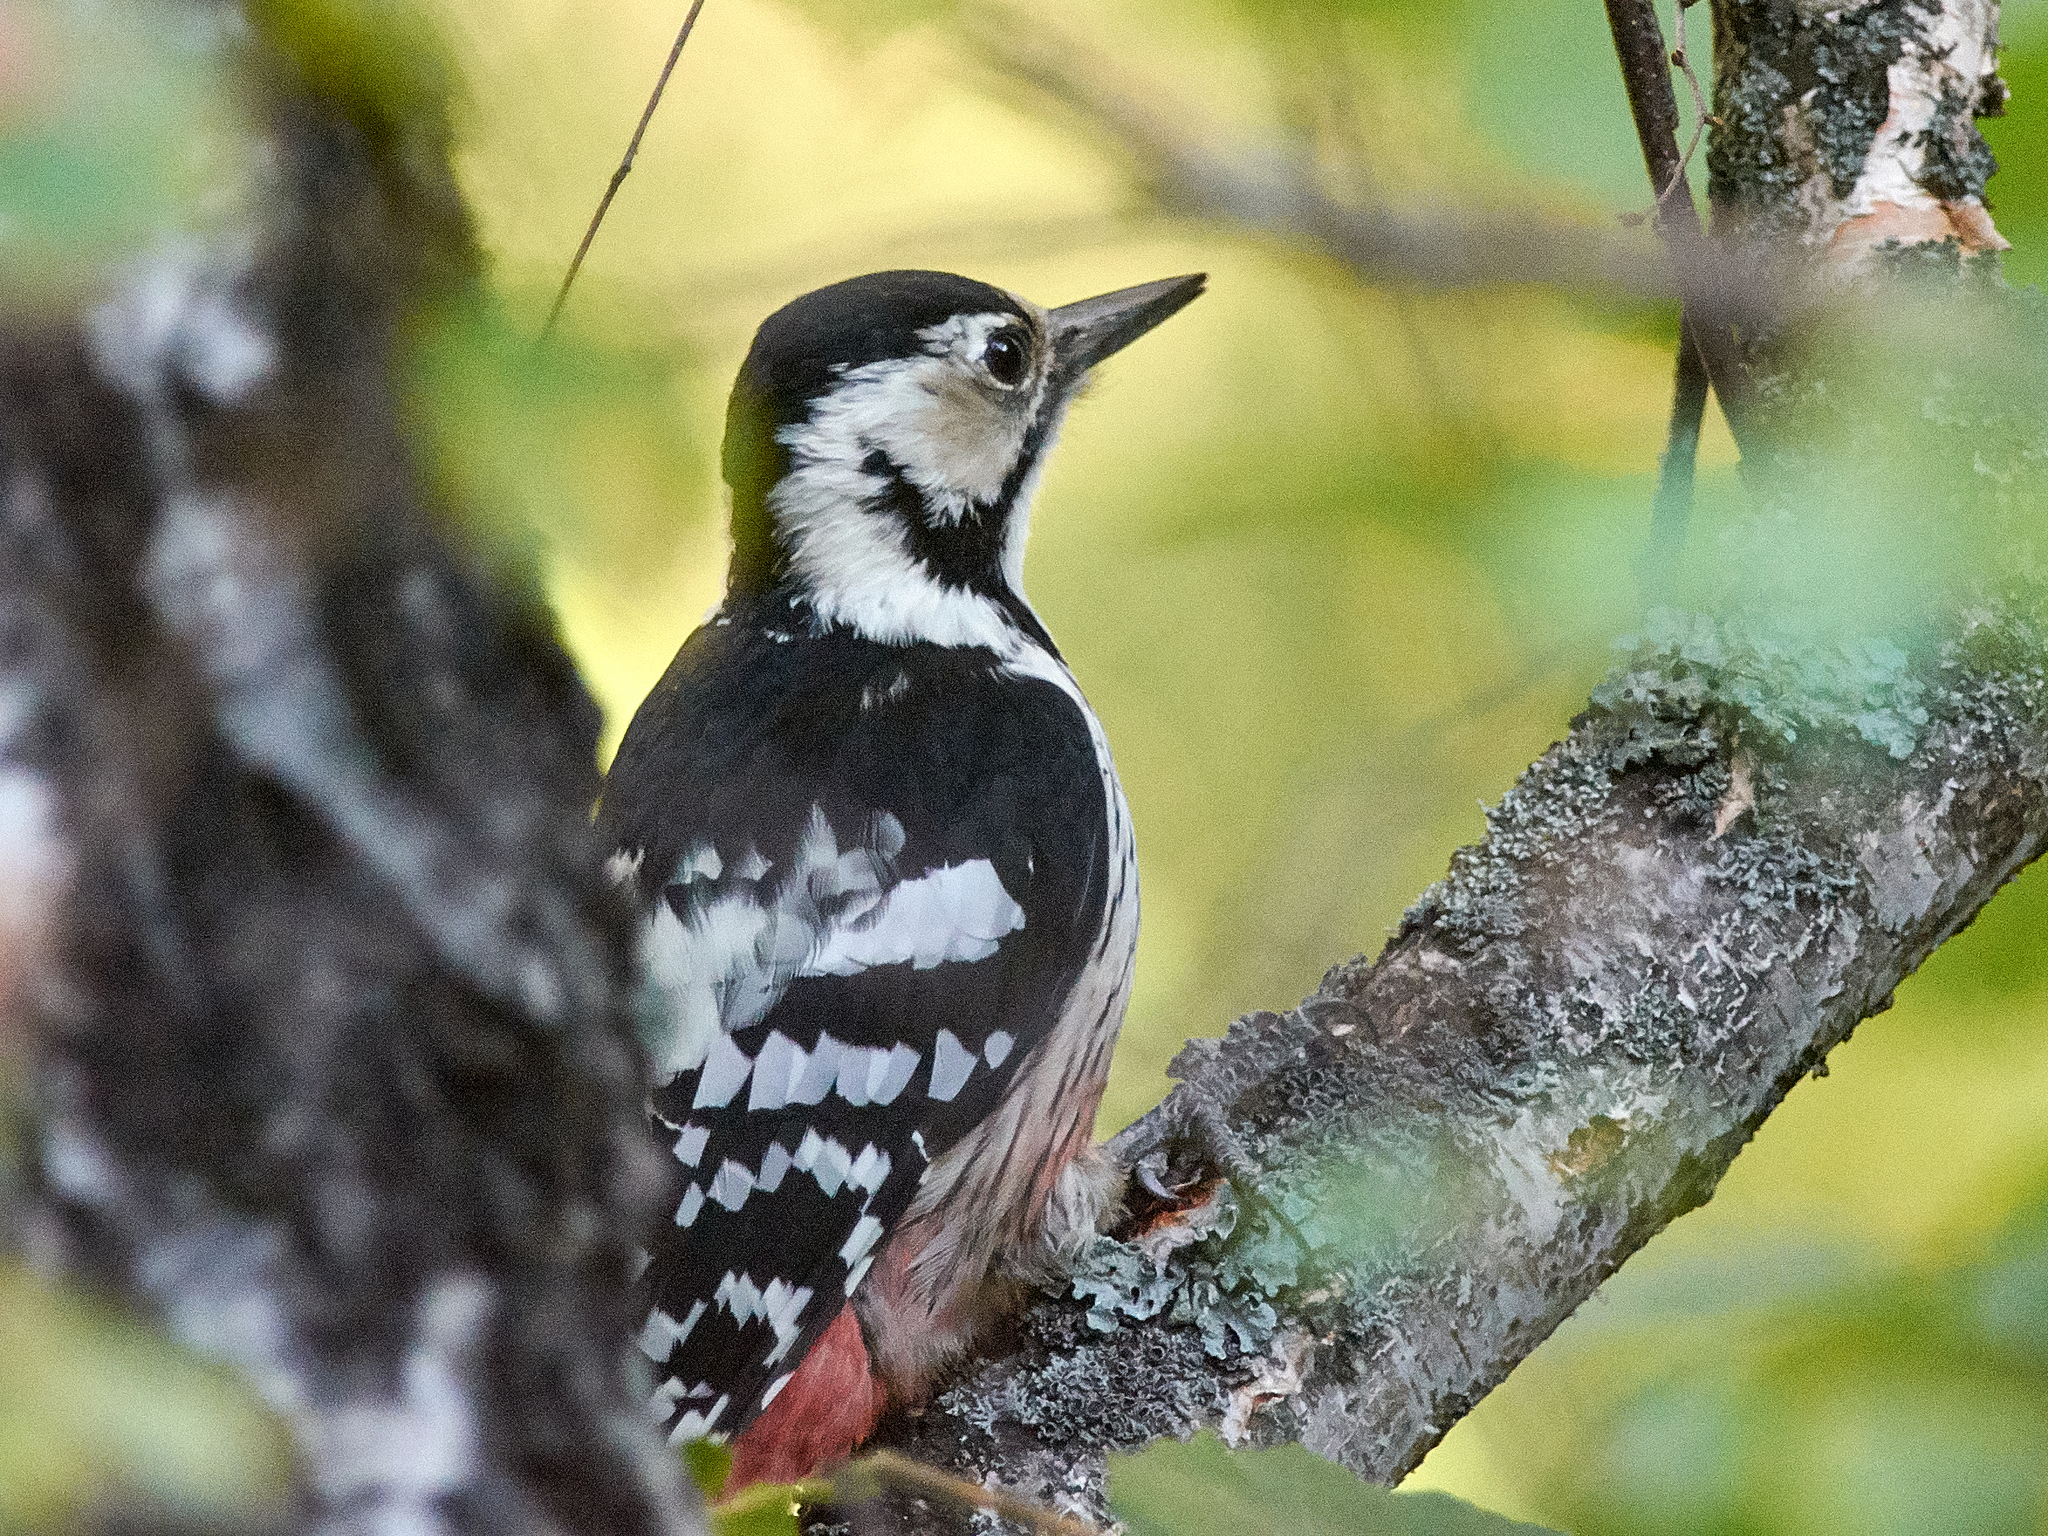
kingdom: Animalia
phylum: Chordata
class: Aves
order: Piciformes
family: Picidae
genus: Dendrocopos
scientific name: Dendrocopos leucotos
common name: White-backed woodpecker
